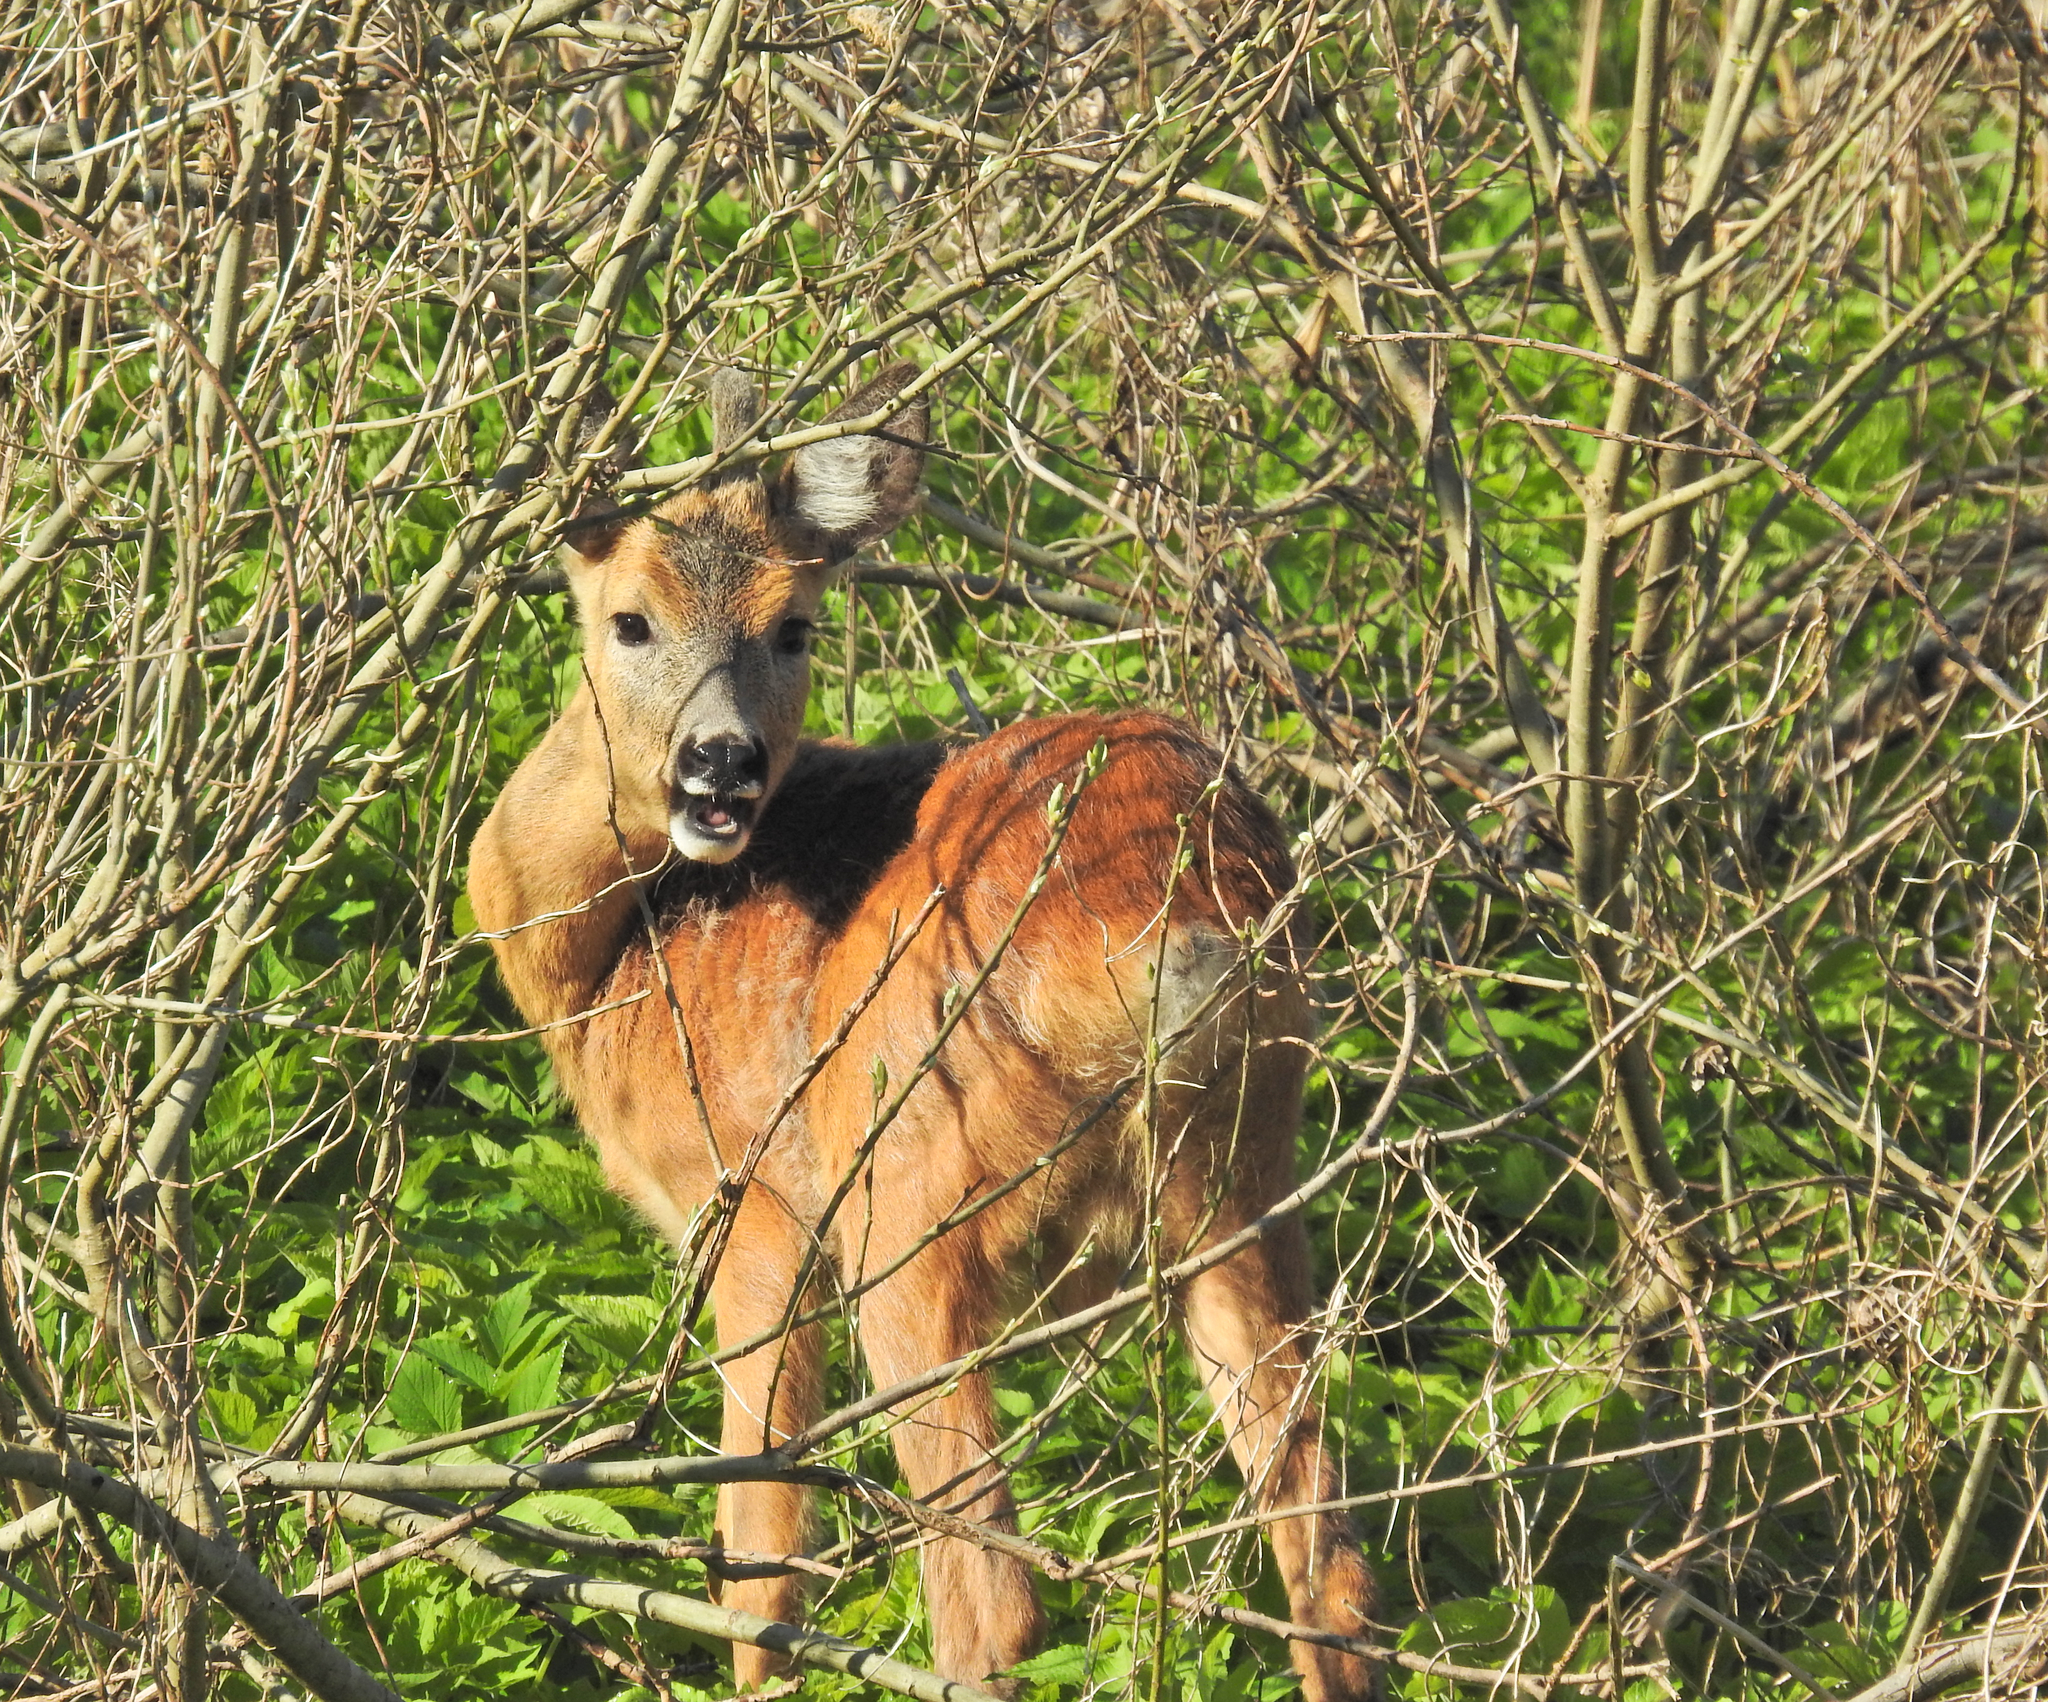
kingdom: Animalia
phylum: Chordata
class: Mammalia
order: Artiodactyla
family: Cervidae
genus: Capreolus
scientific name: Capreolus capreolus
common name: Western roe deer
